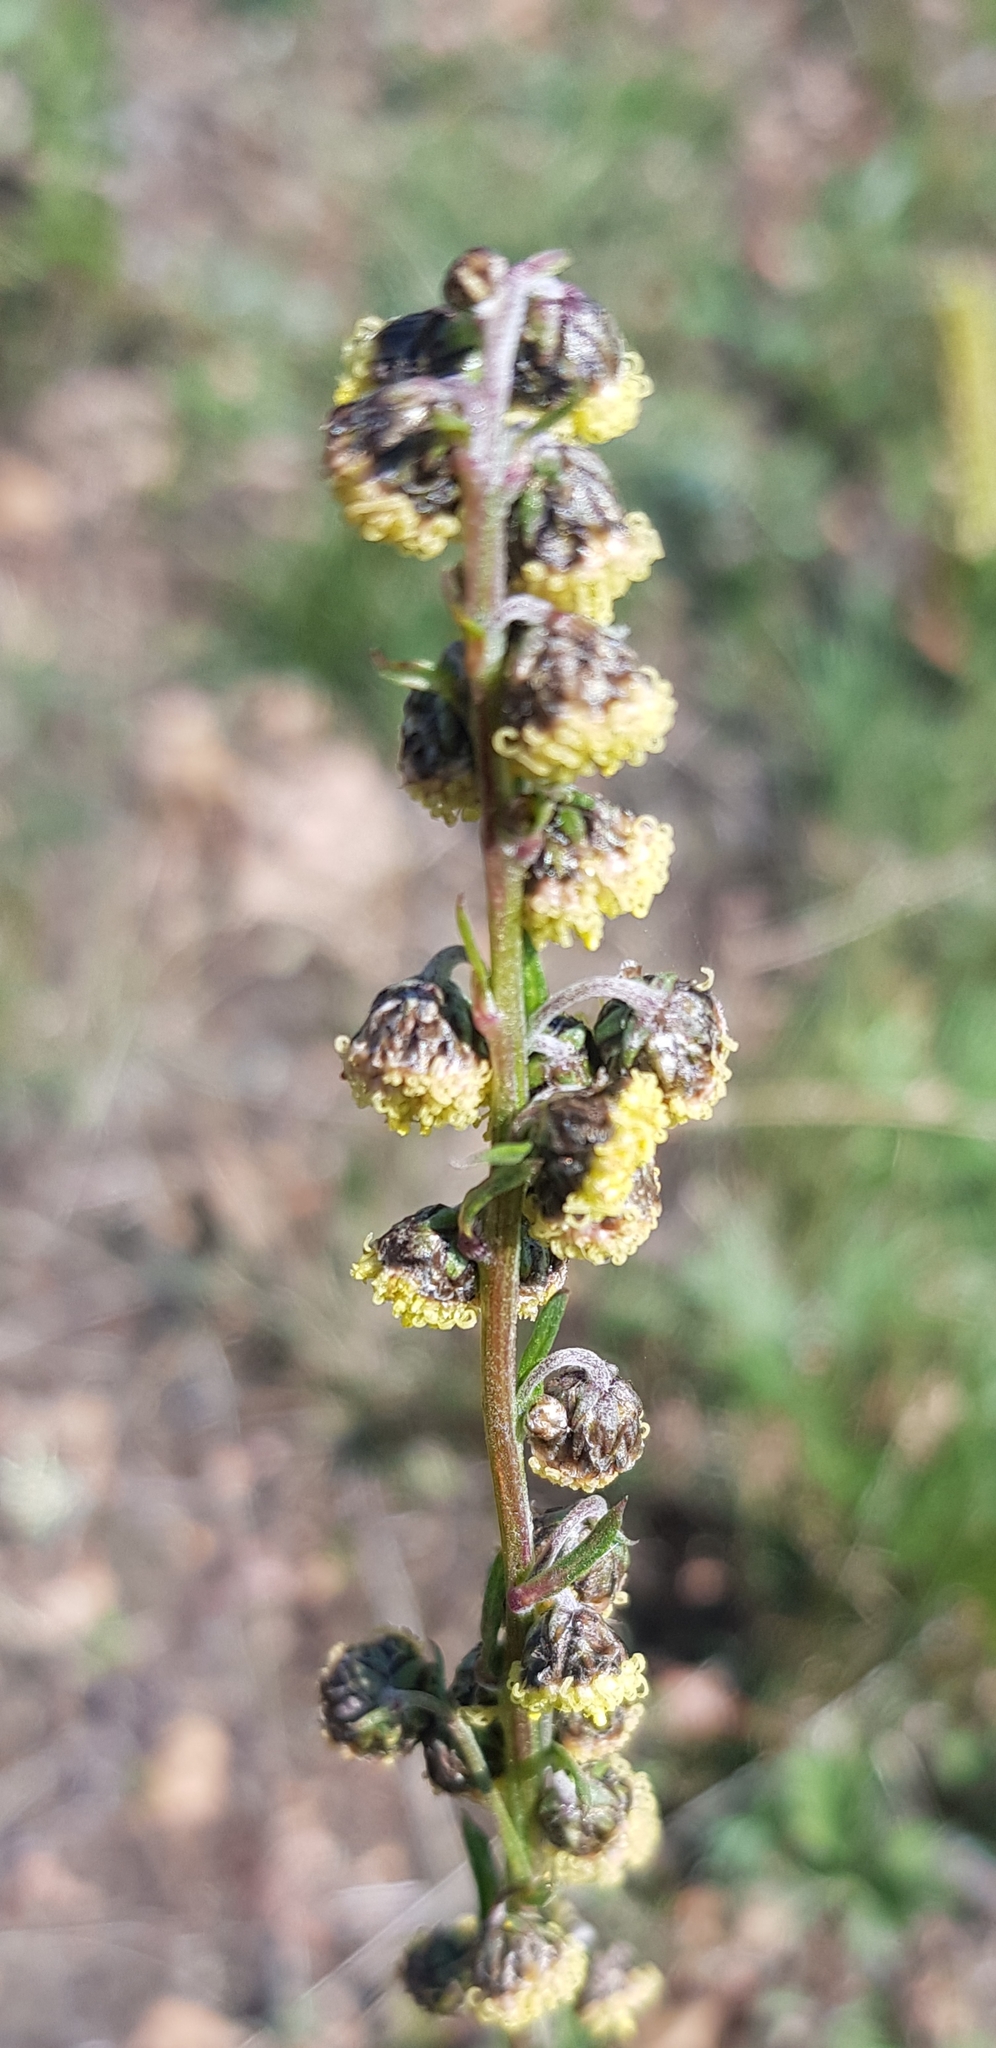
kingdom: Plantae
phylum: Tracheophyta
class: Magnoliopsida
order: Asterales
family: Asteraceae
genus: Artemisia
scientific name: Artemisia tanacetifolia
